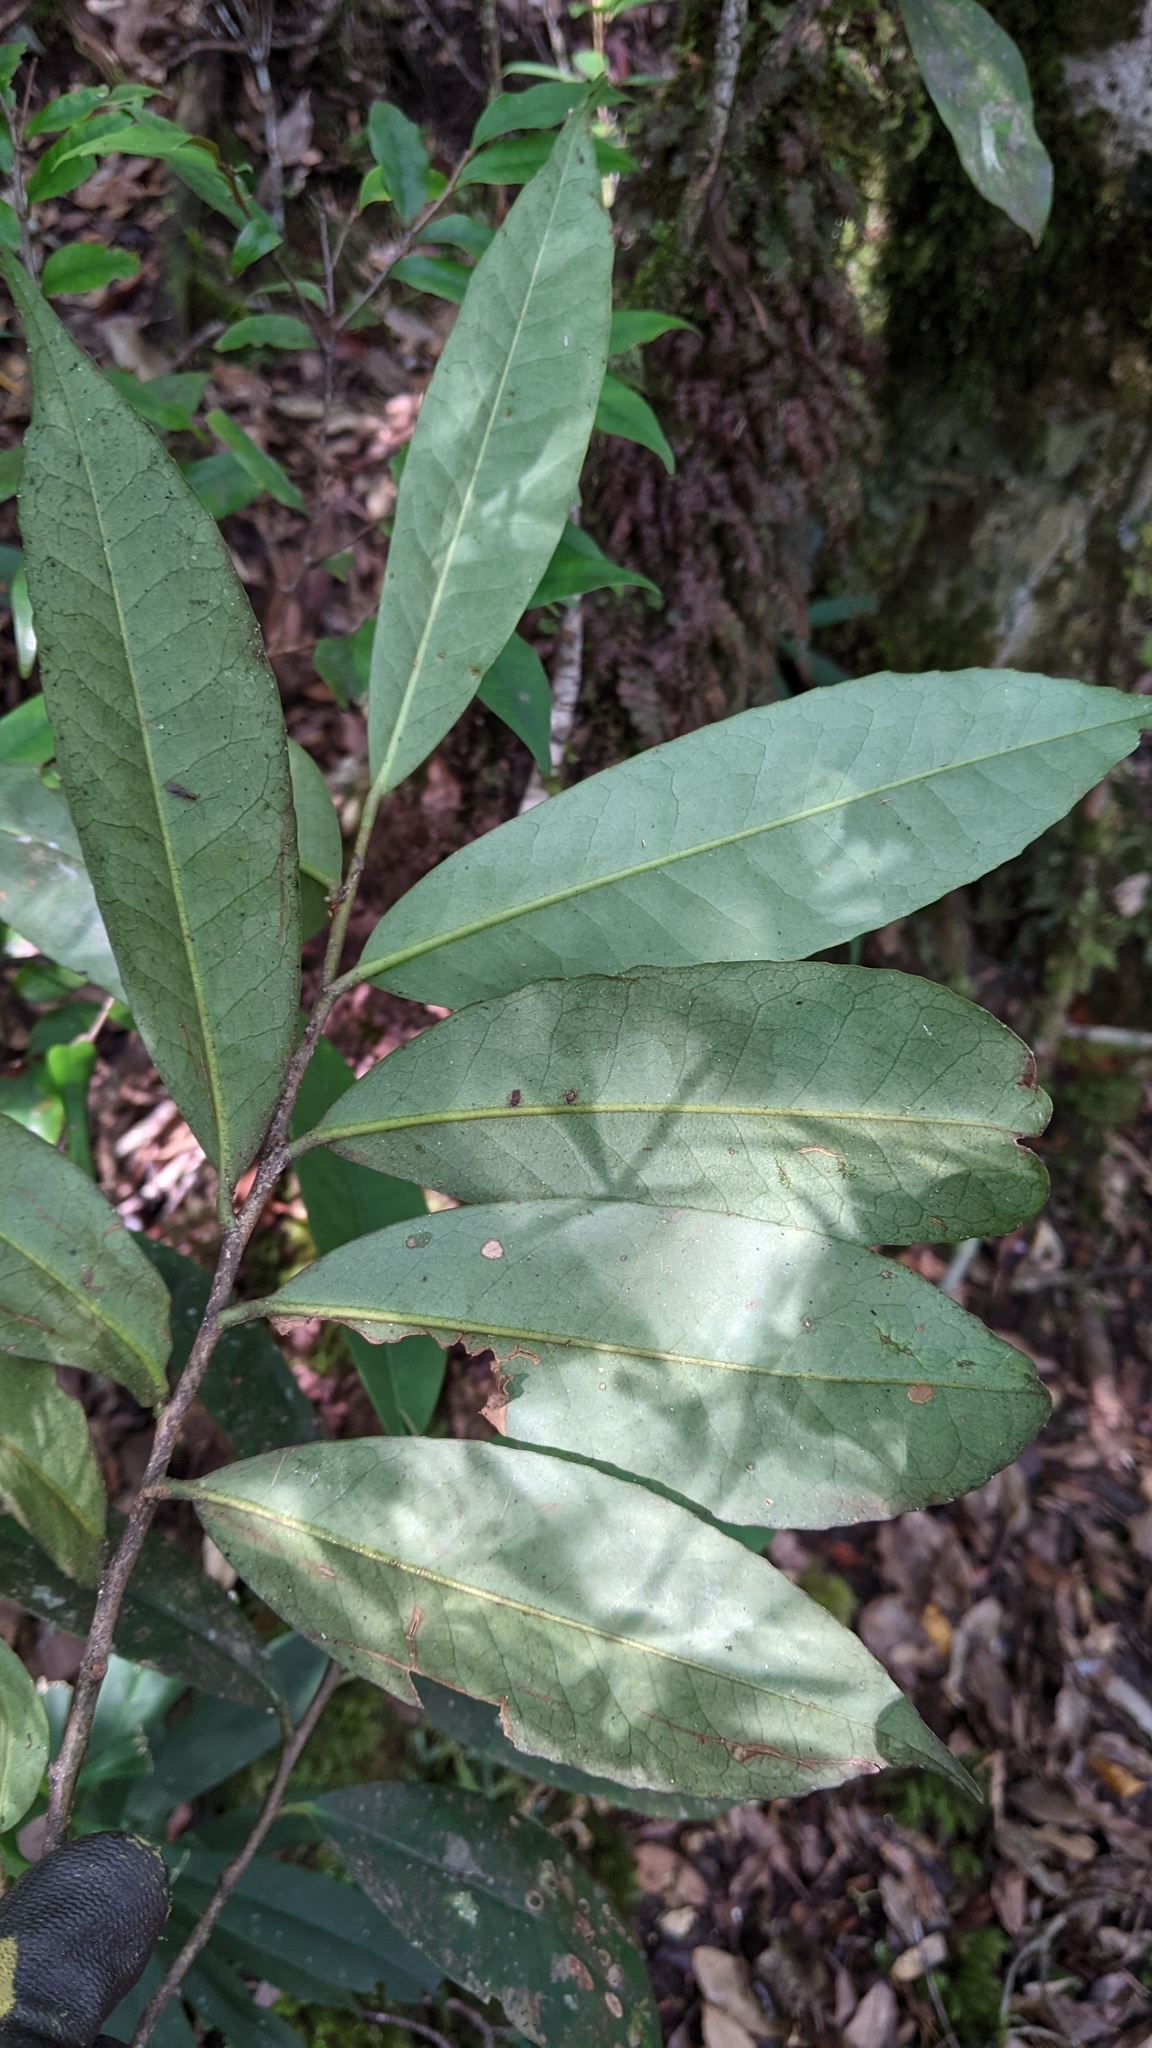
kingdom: Plantae
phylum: Tracheophyta
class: Magnoliopsida
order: Aquifoliales
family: Aquifoliaceae
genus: Ilex
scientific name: Ilex ficoidea
